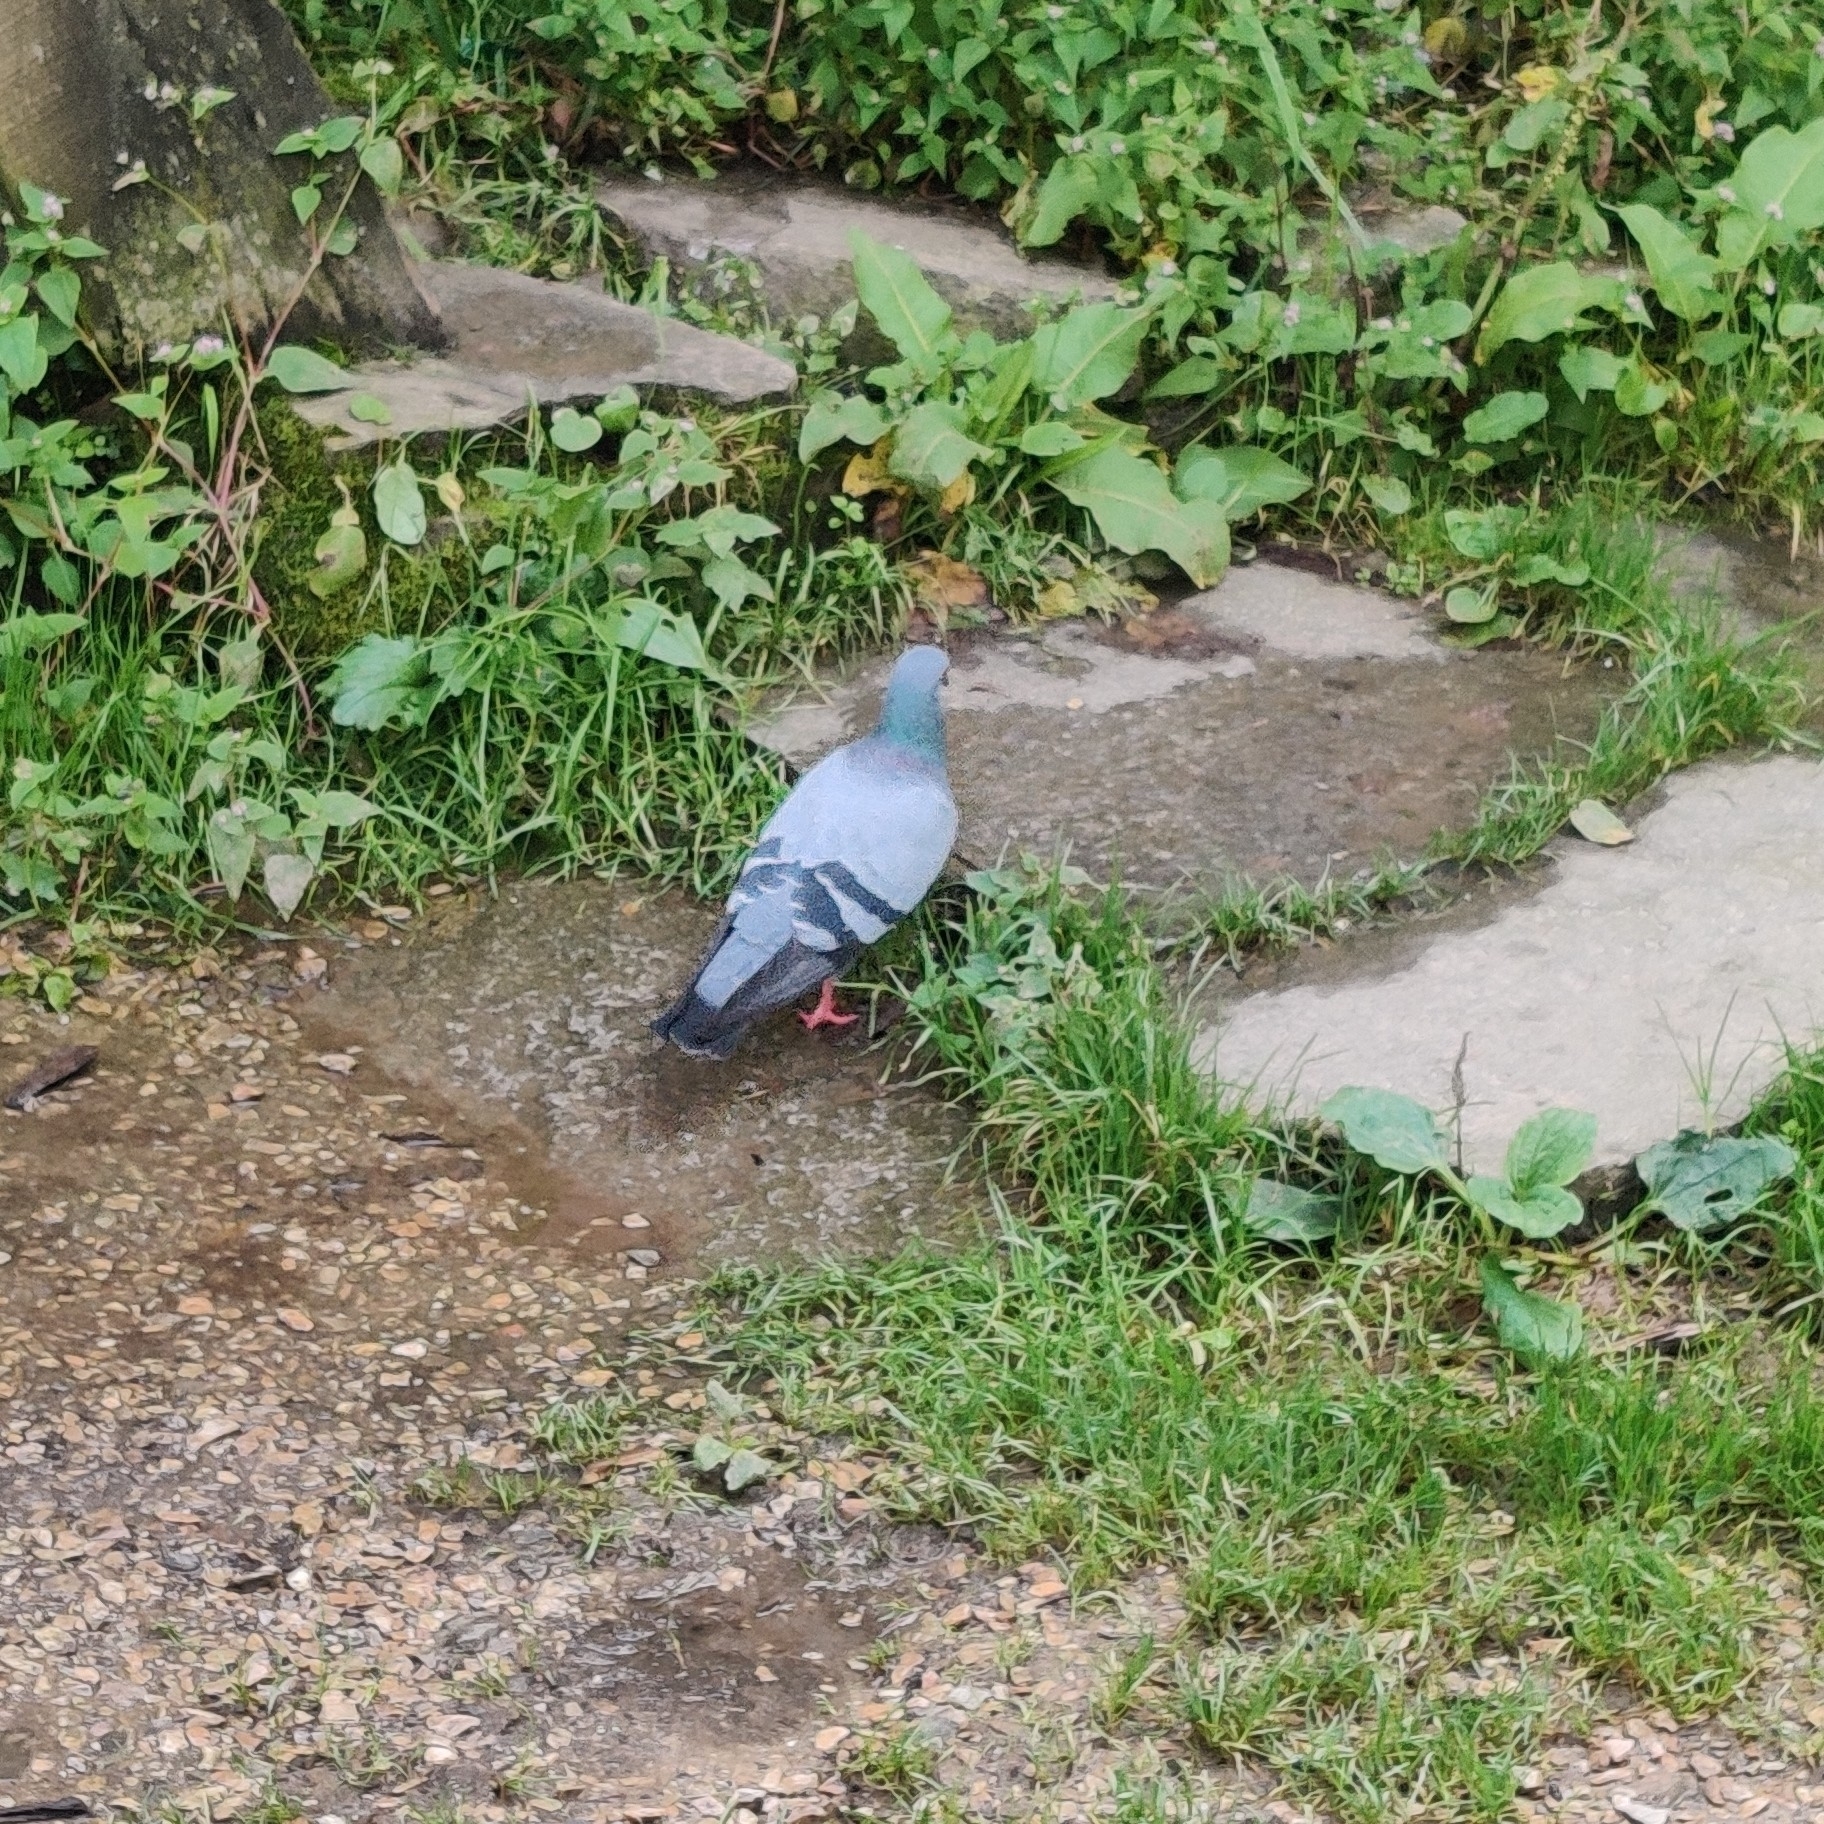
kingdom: Animalia
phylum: Chordata
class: Aves
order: Columbiformes
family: Columbidae
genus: Columba
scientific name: Columba livia
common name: Rock pigeon
